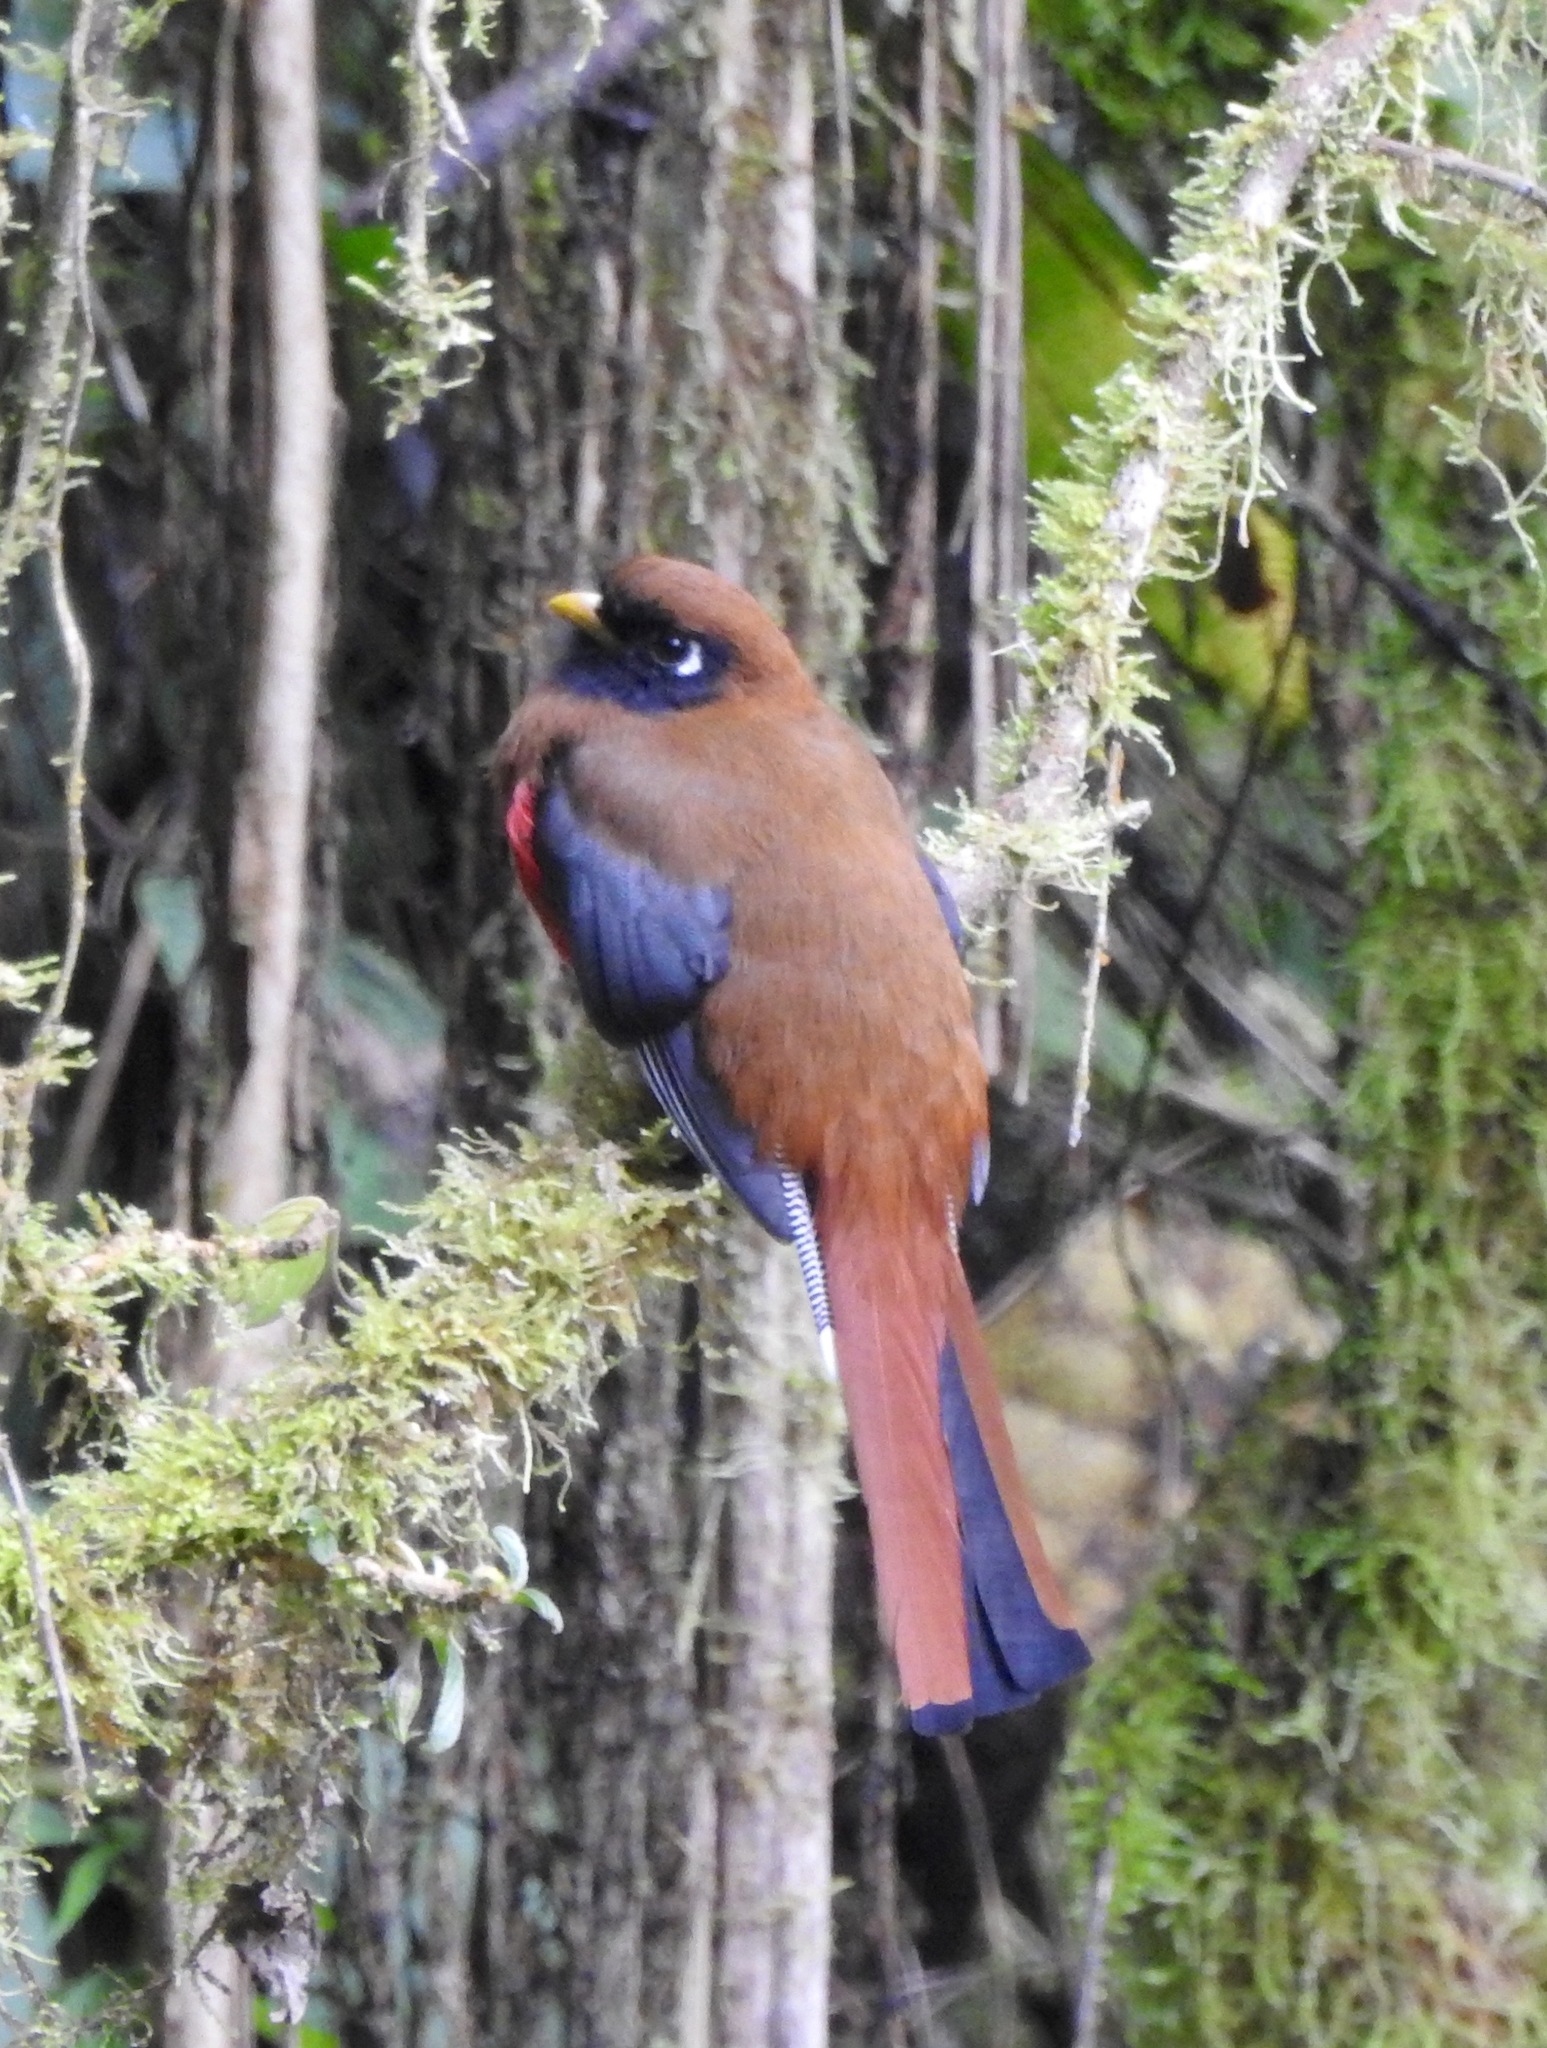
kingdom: Animalia
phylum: Chordata
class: Aves
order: Trogoniformes
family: Trogonidae
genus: Trogon
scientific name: Trogon personatus
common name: Masked trogon
